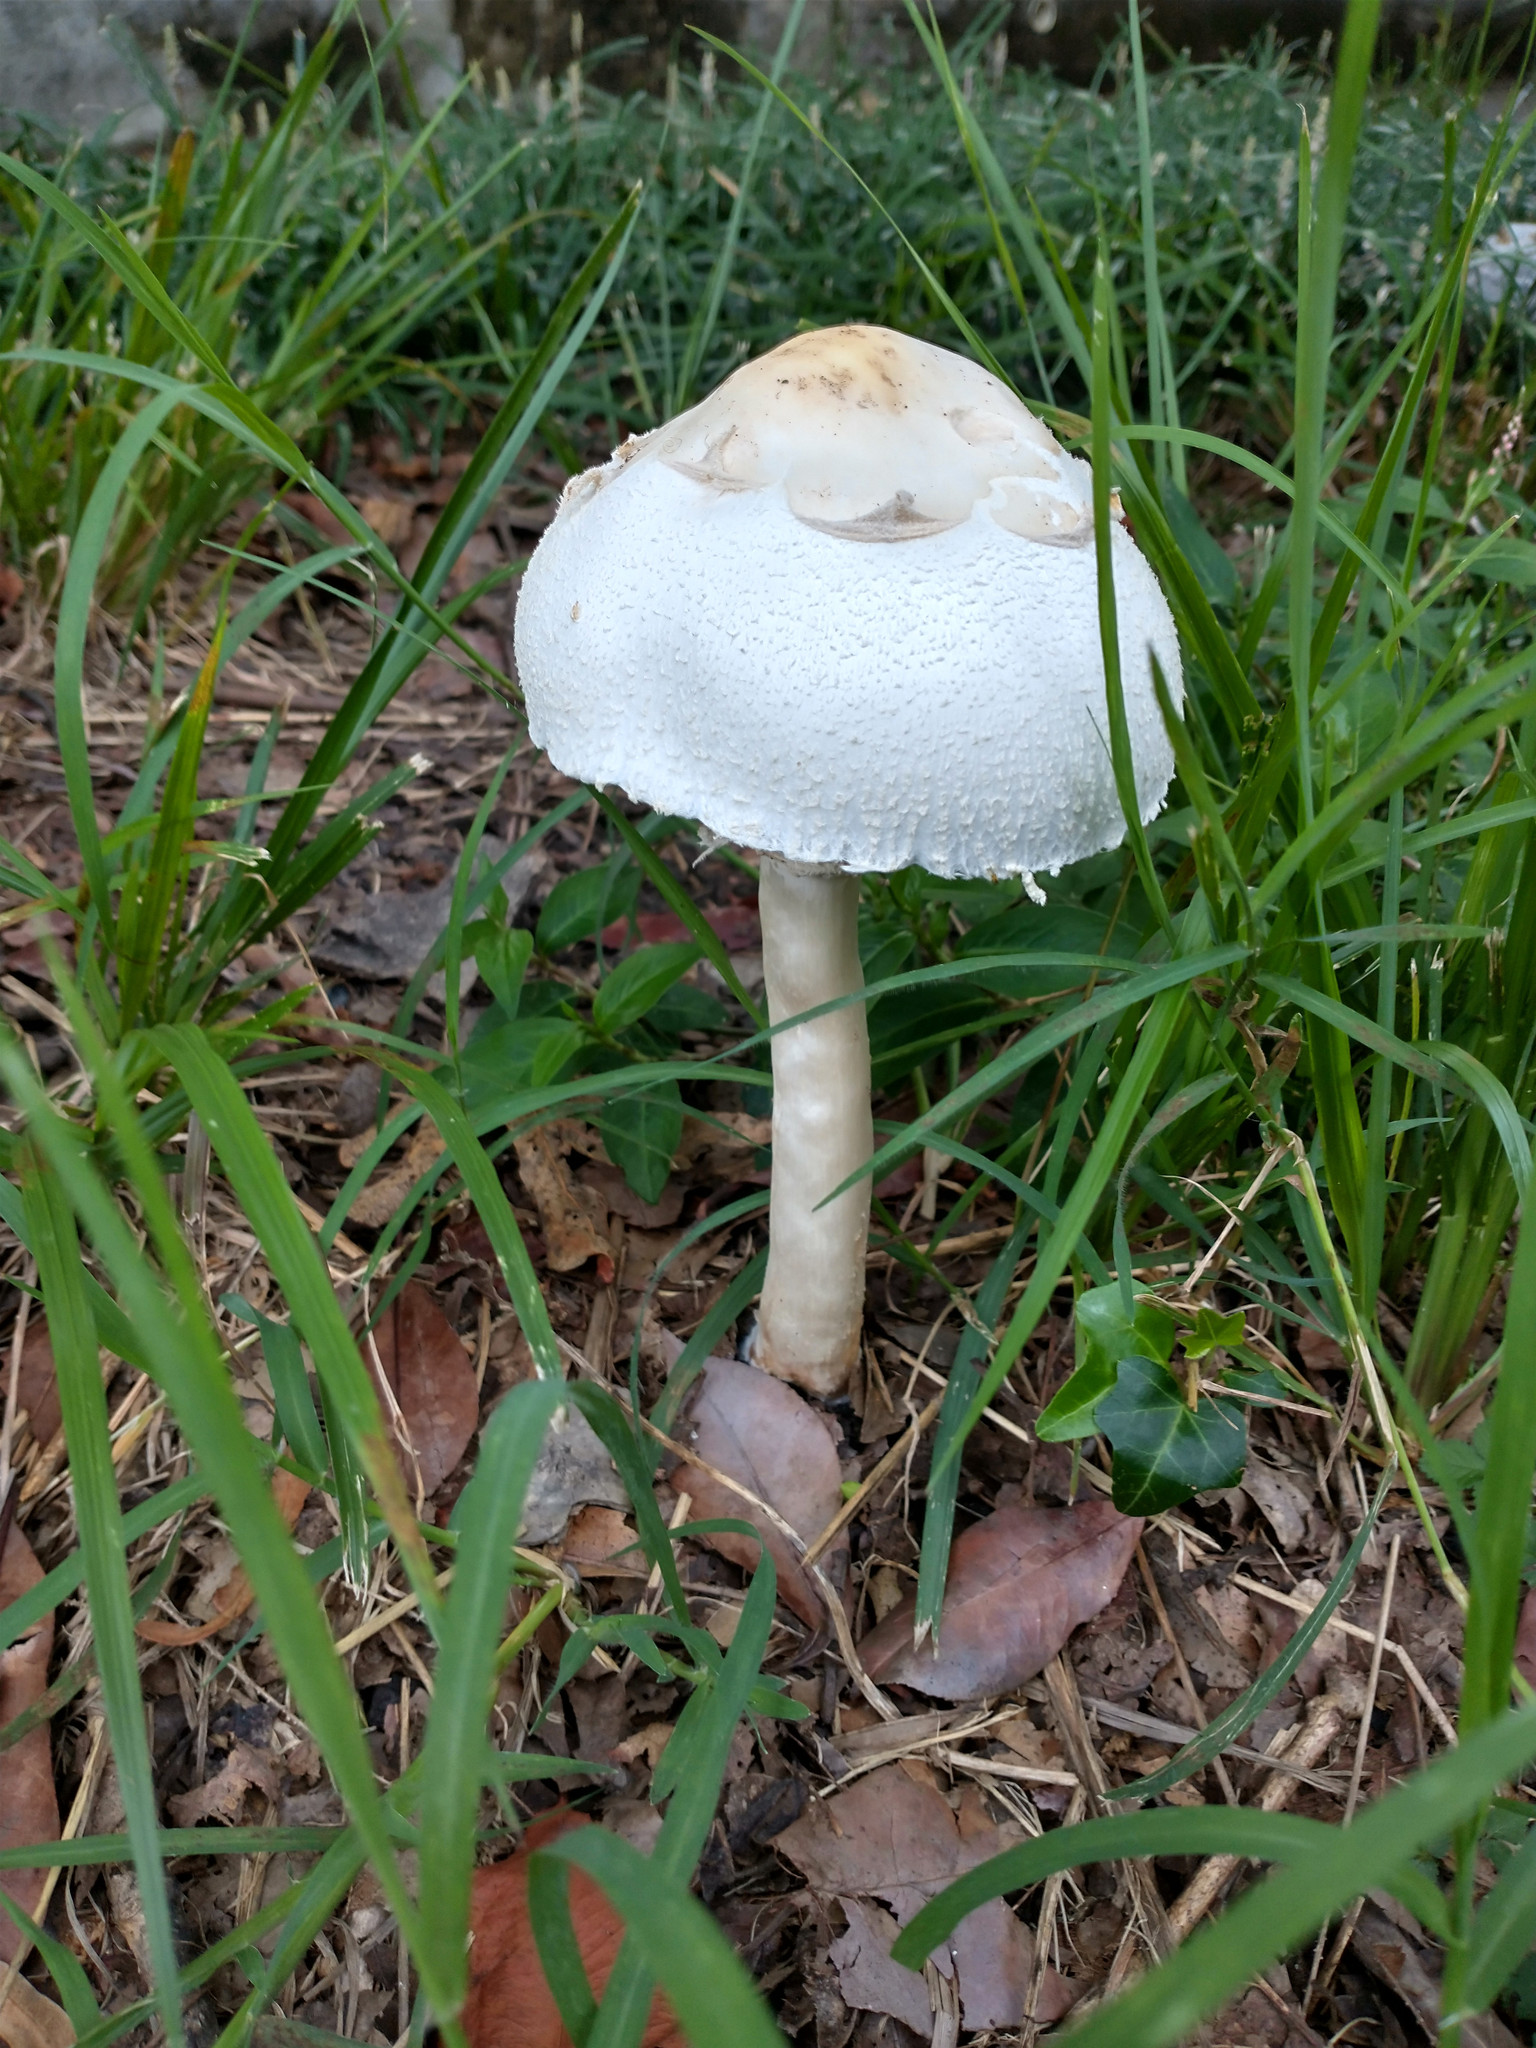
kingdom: Fungi
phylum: Basidiomycota
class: Agaricomycetes
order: Agaricales
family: Agaricaceae
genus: Chlorophyllum
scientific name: Chlorophyllum molybdites
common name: False parasol
